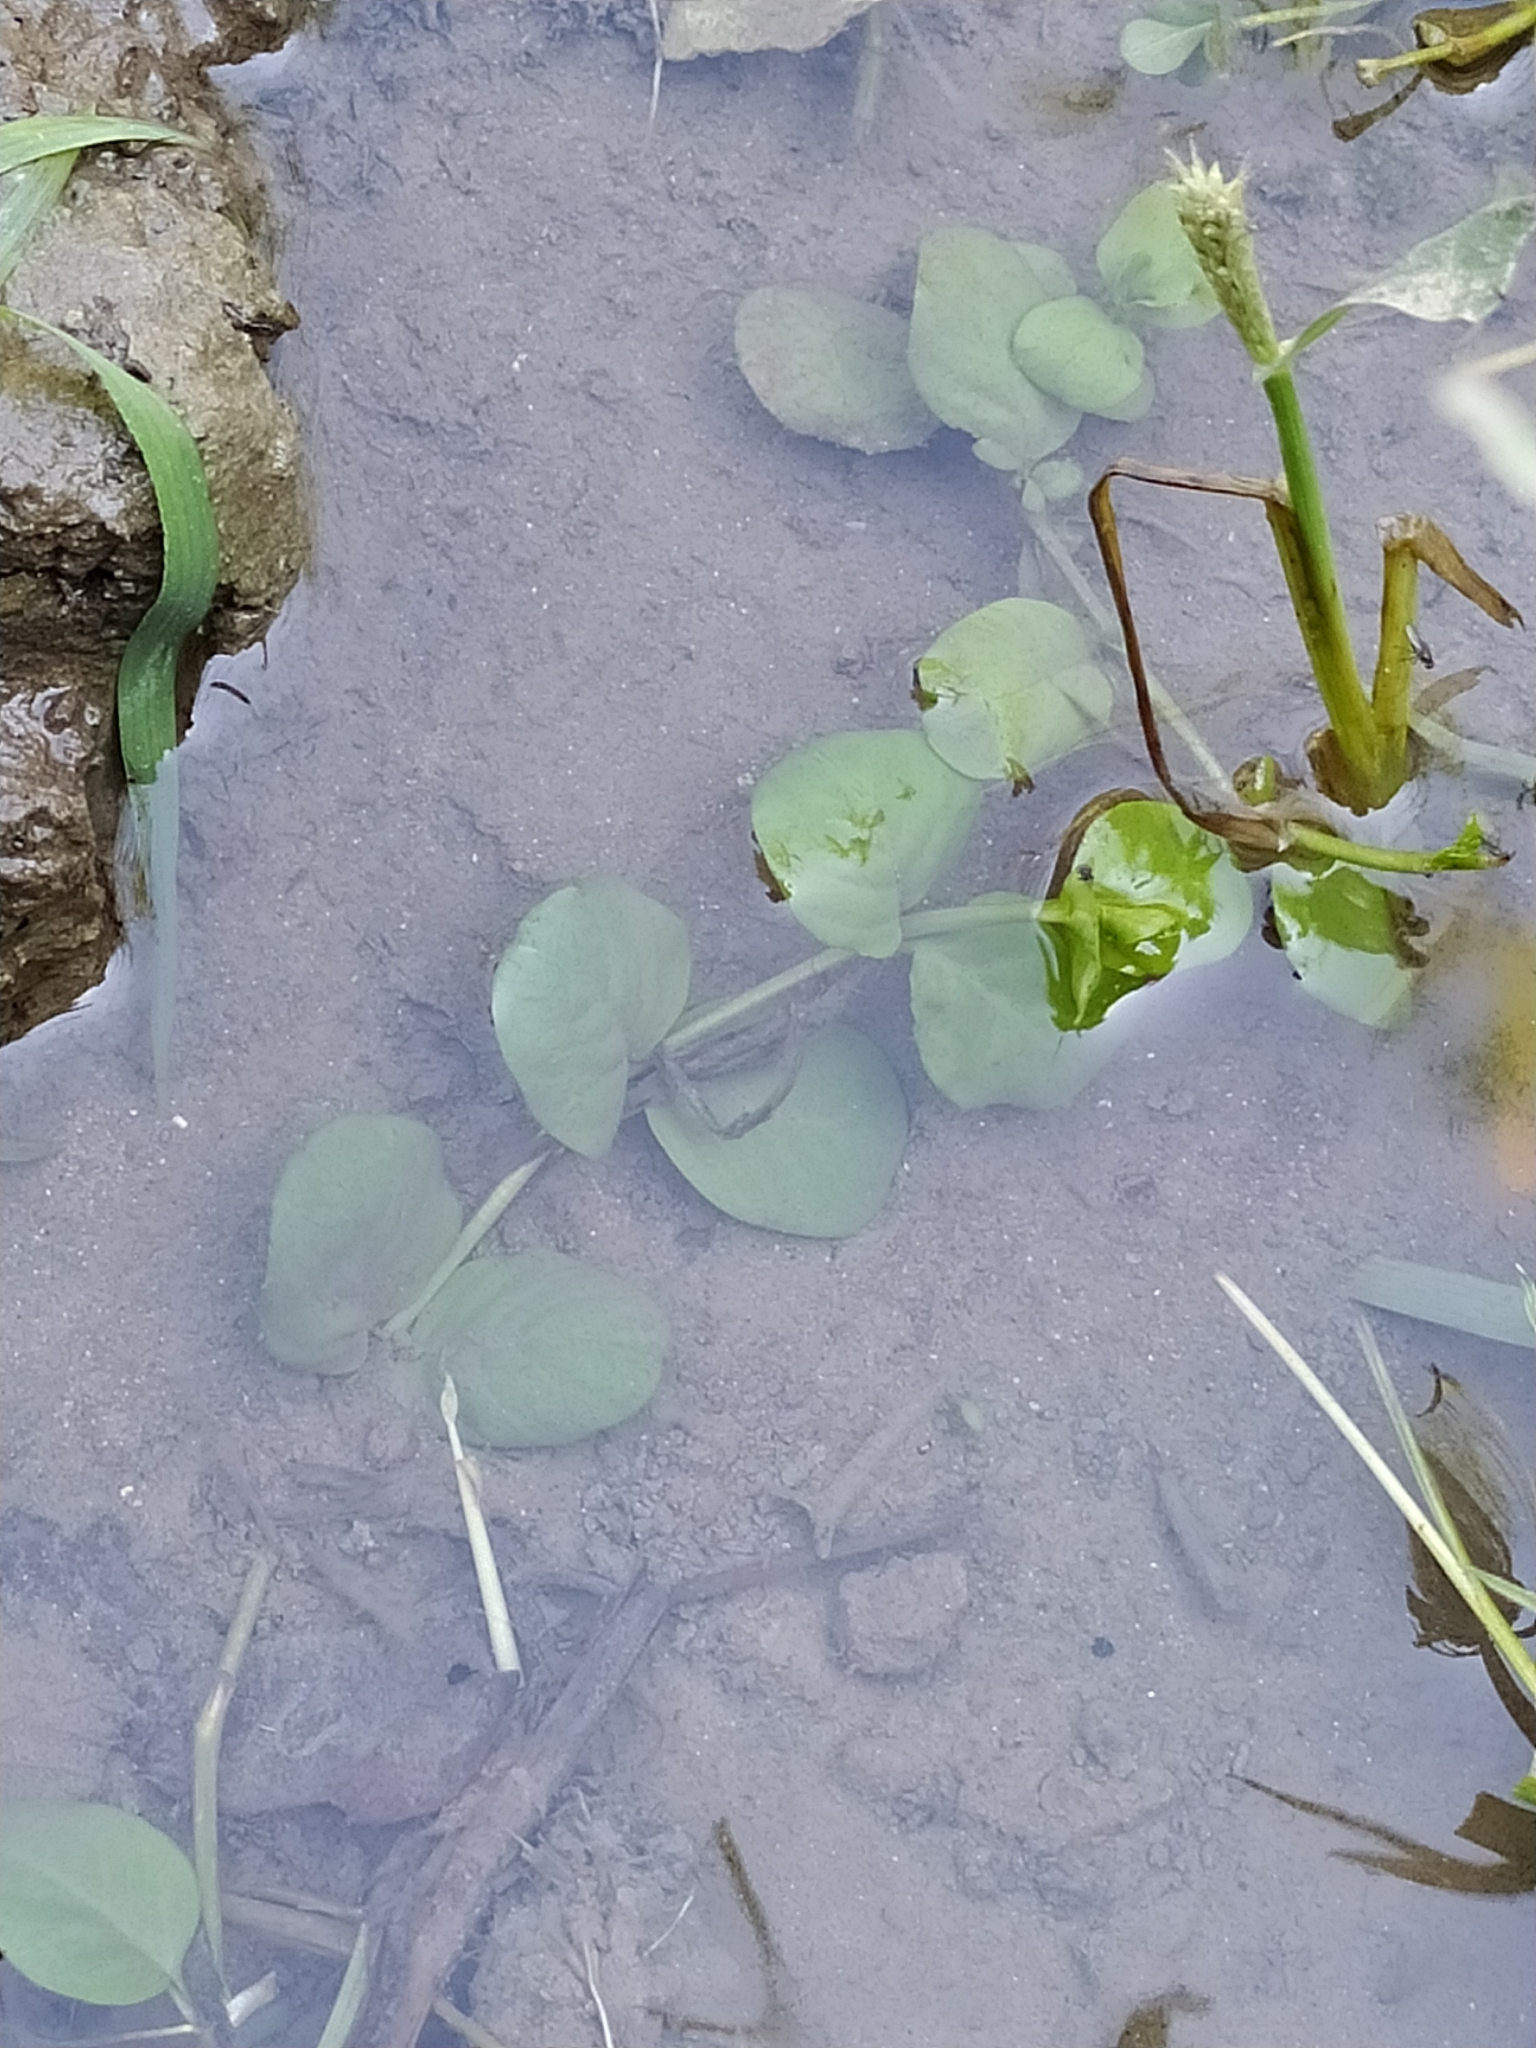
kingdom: Plantae
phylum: Tracheophyta
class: Magnoliopsida
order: Ericales
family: Primulaceae
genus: Lysimachia
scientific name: Lysimachia nummularia
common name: Moneywort
